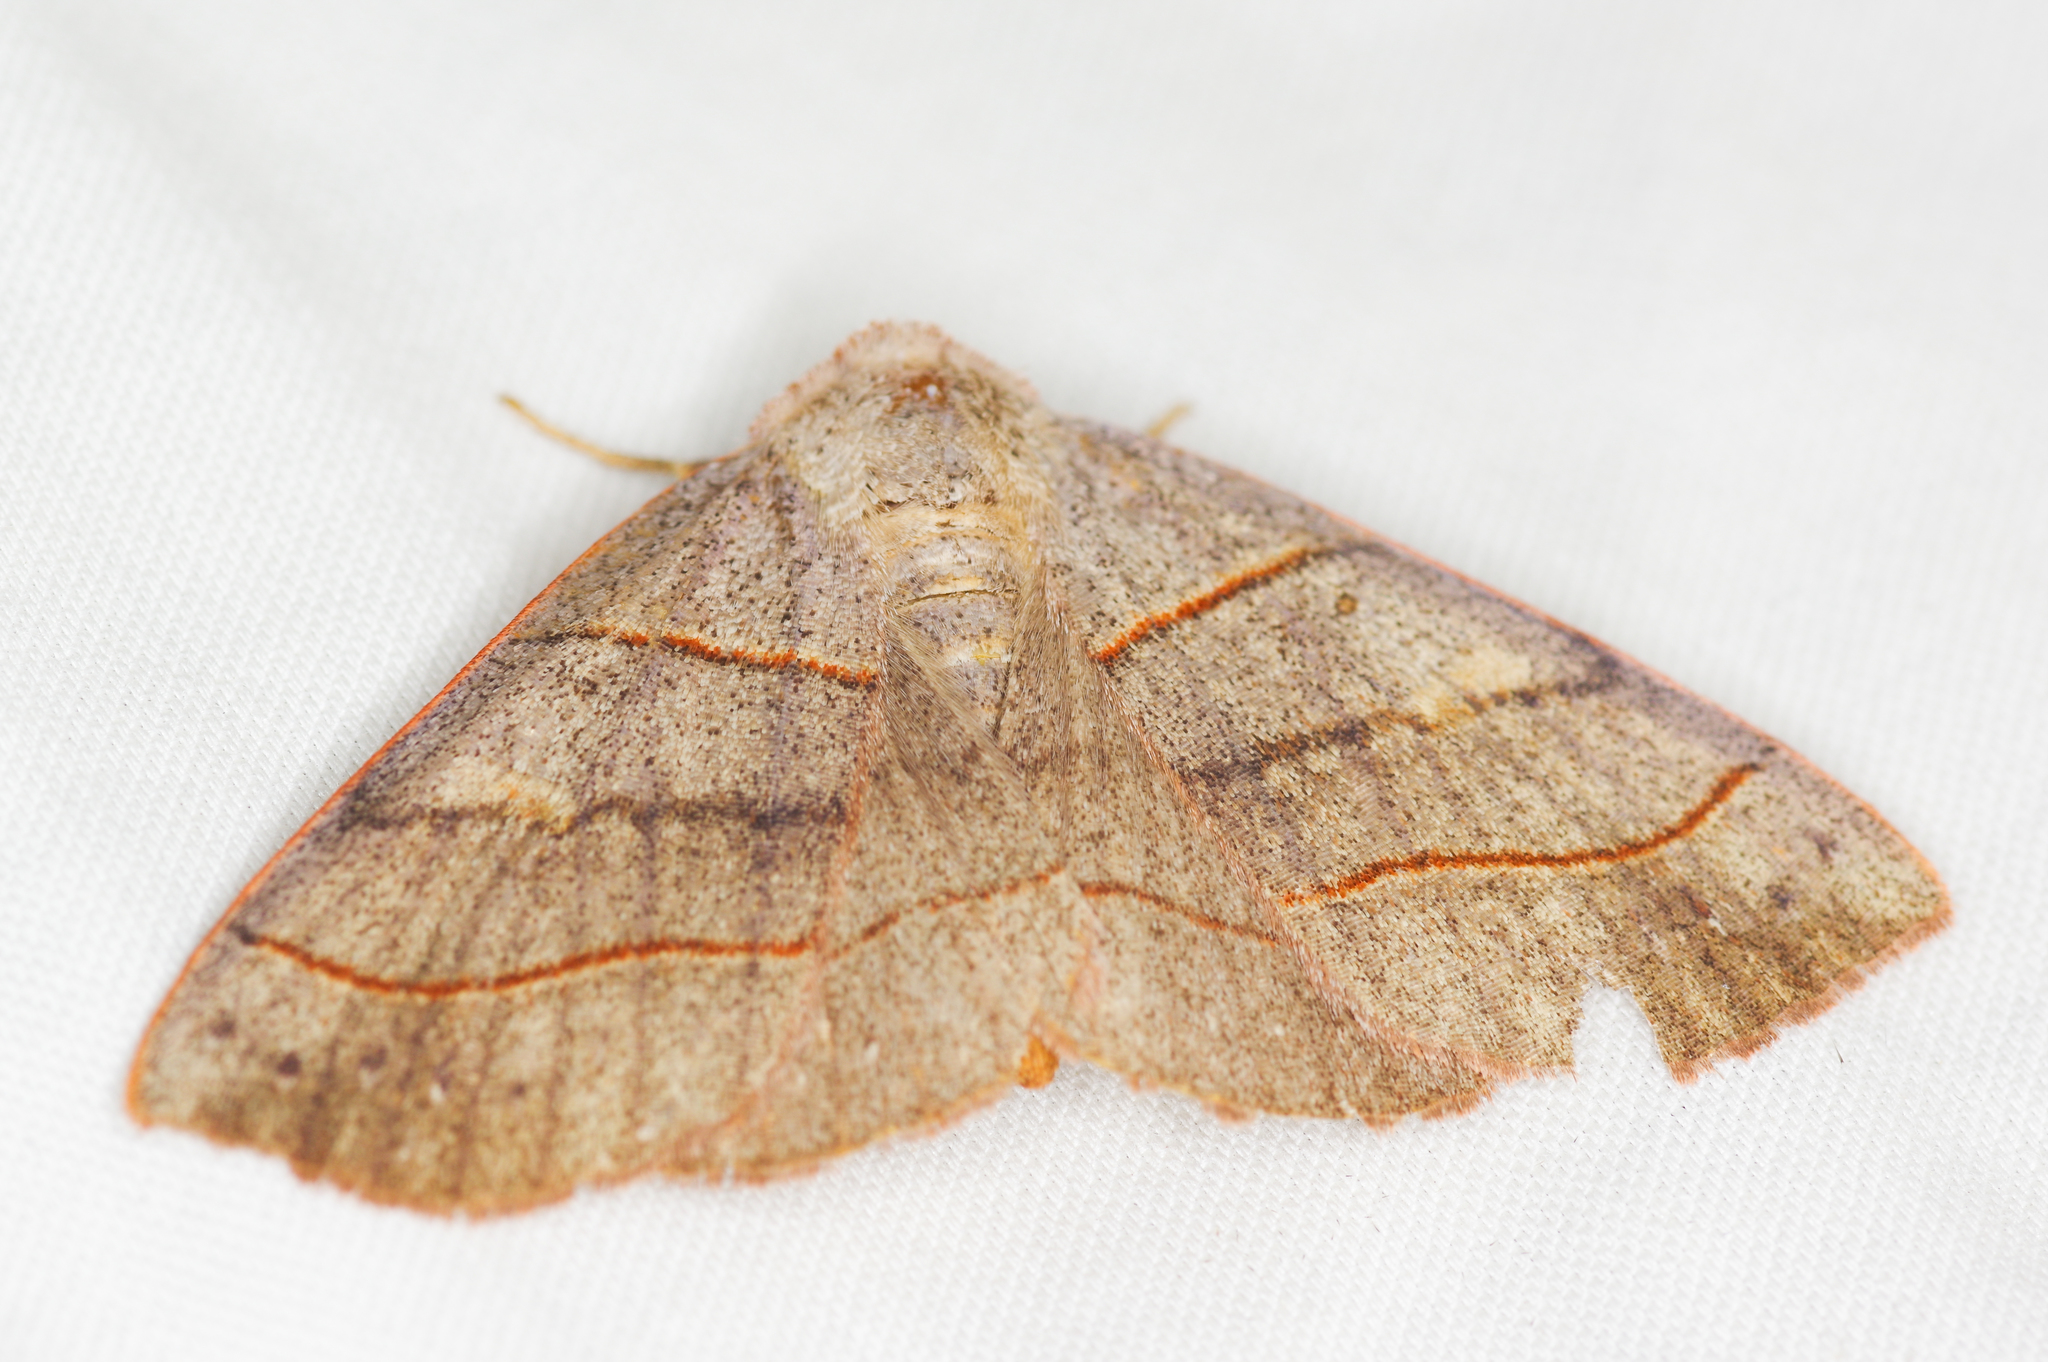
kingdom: Animalia
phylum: Arthropoda
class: Insecta
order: Lepidoptera
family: Erebidae
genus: Panopoda
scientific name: Panopoda rufimargo
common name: Red-lined panopoda moth
